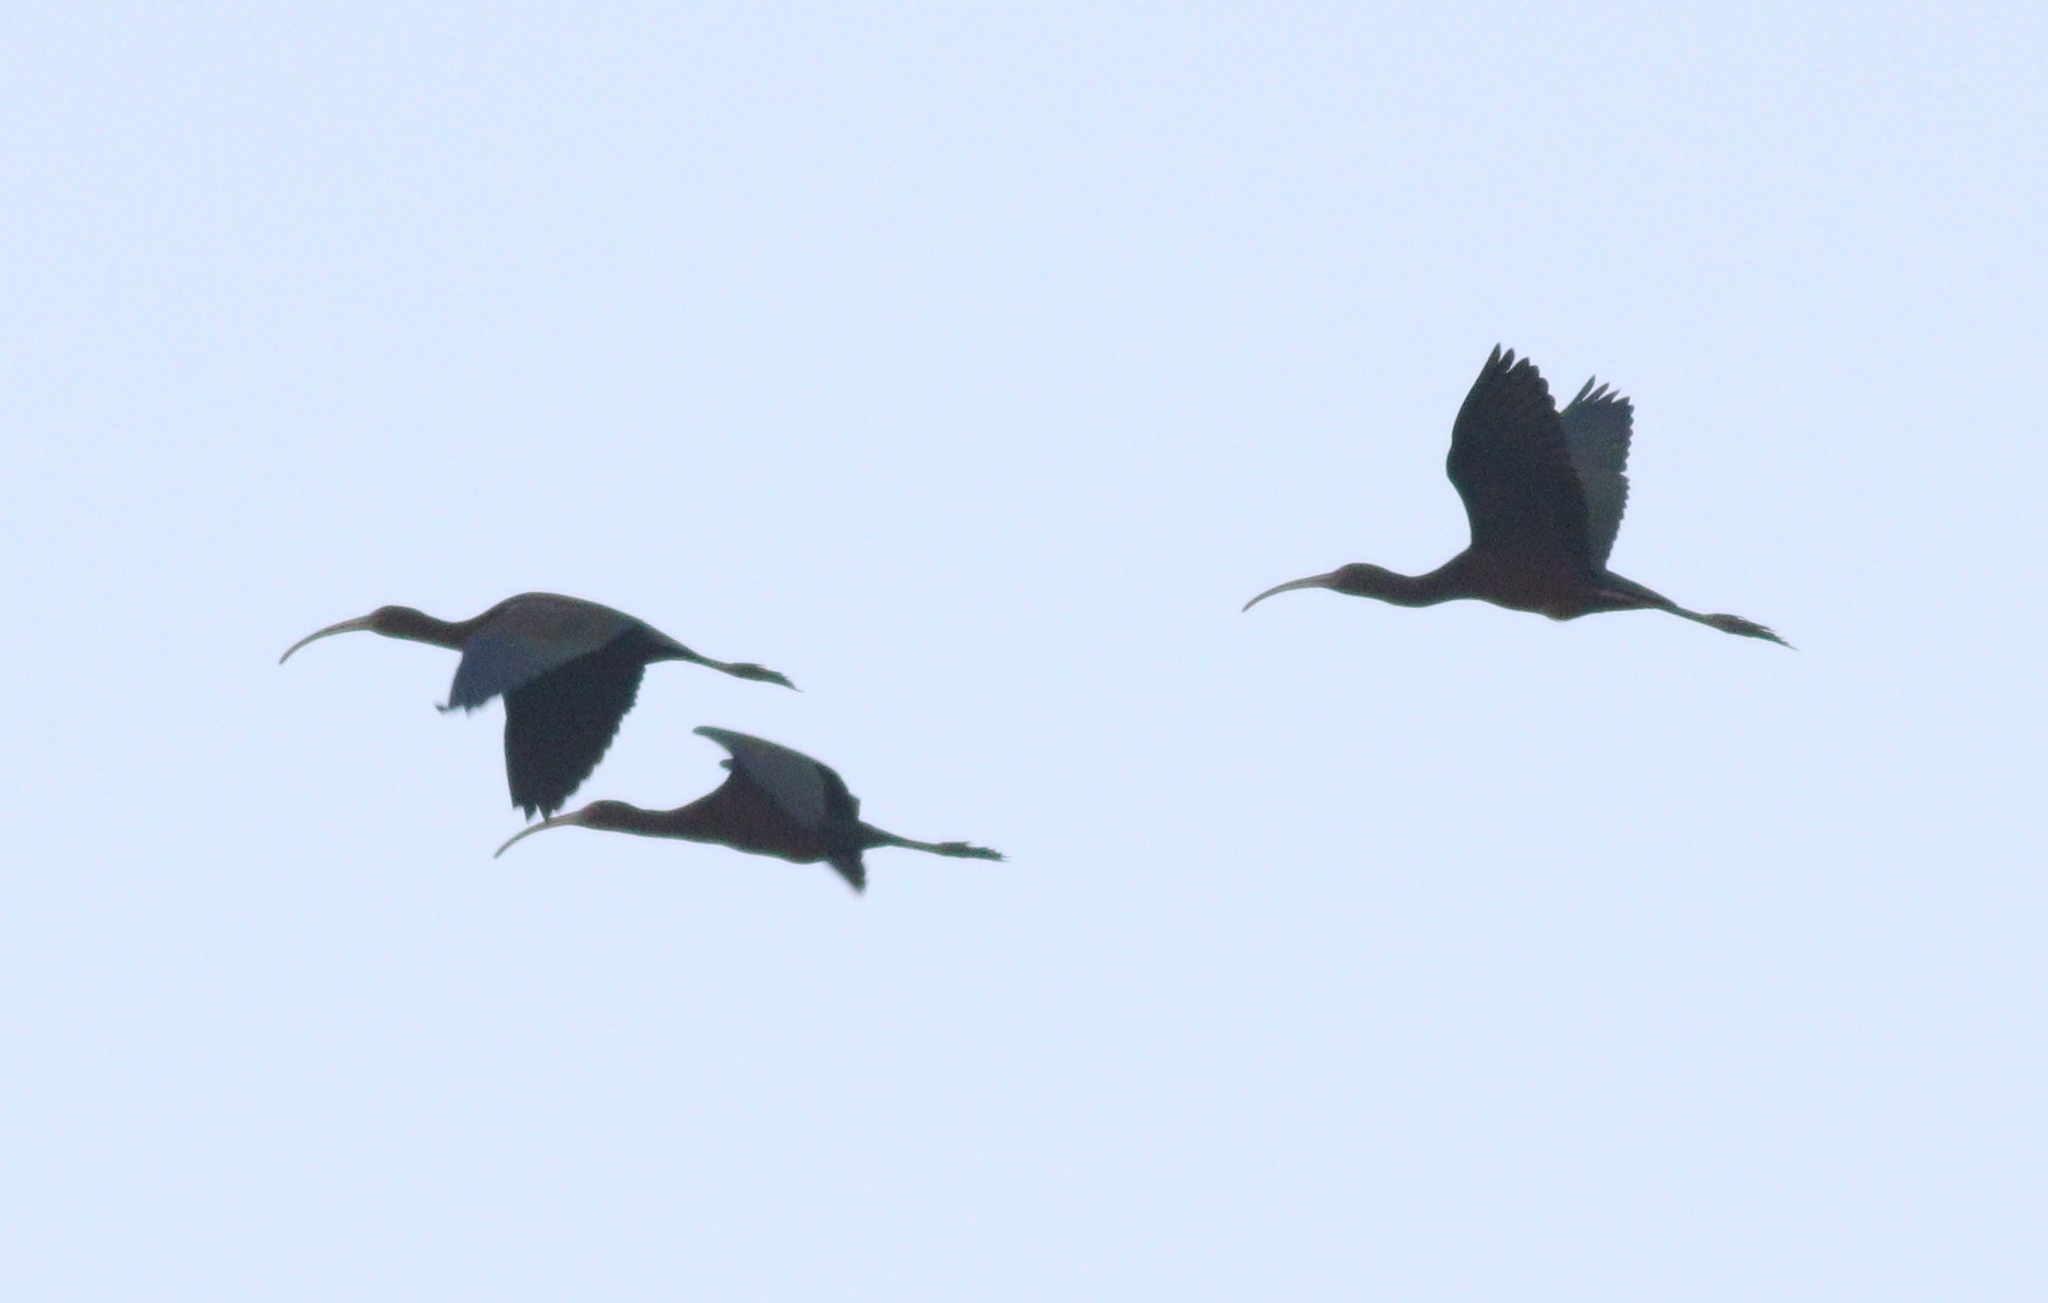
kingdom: Animalia
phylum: Chordata
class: Aves
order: Pelecaniformes
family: Threskiornithidae
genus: Plegadis
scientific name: Plegadis chihi
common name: White-faced ibis
